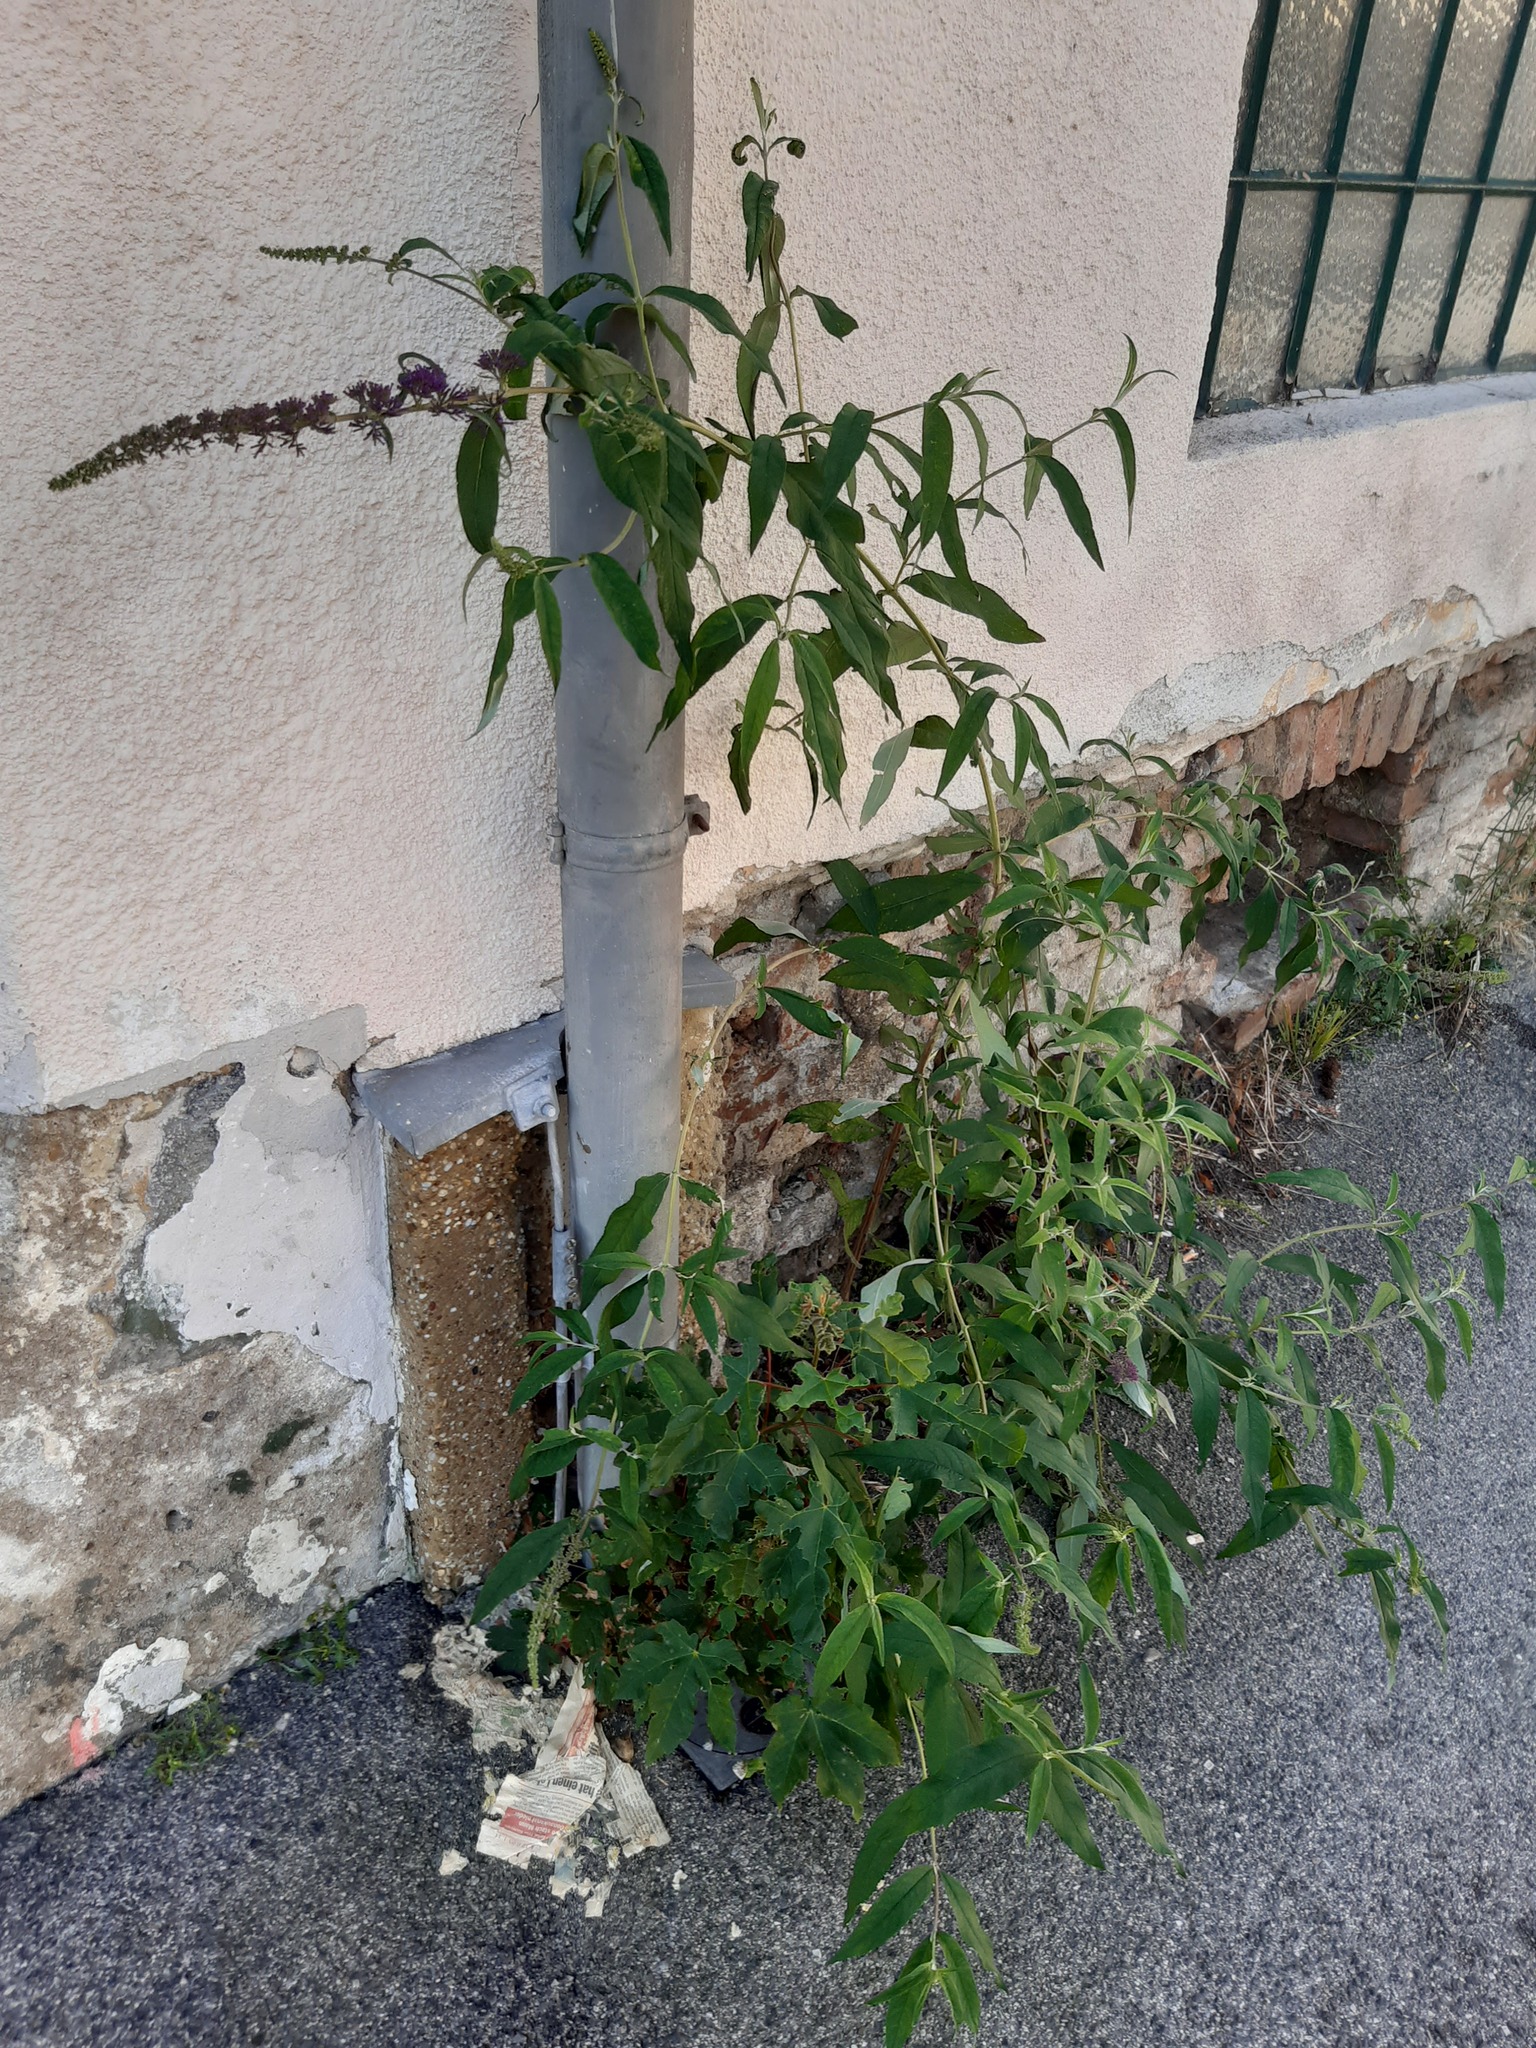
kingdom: Plantae
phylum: Tracheophyta
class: Magnoliopsida
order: Lamiales
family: Scrophulariaceae
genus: Buddleja
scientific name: Buddleja davidii
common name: Butterfly-bush
